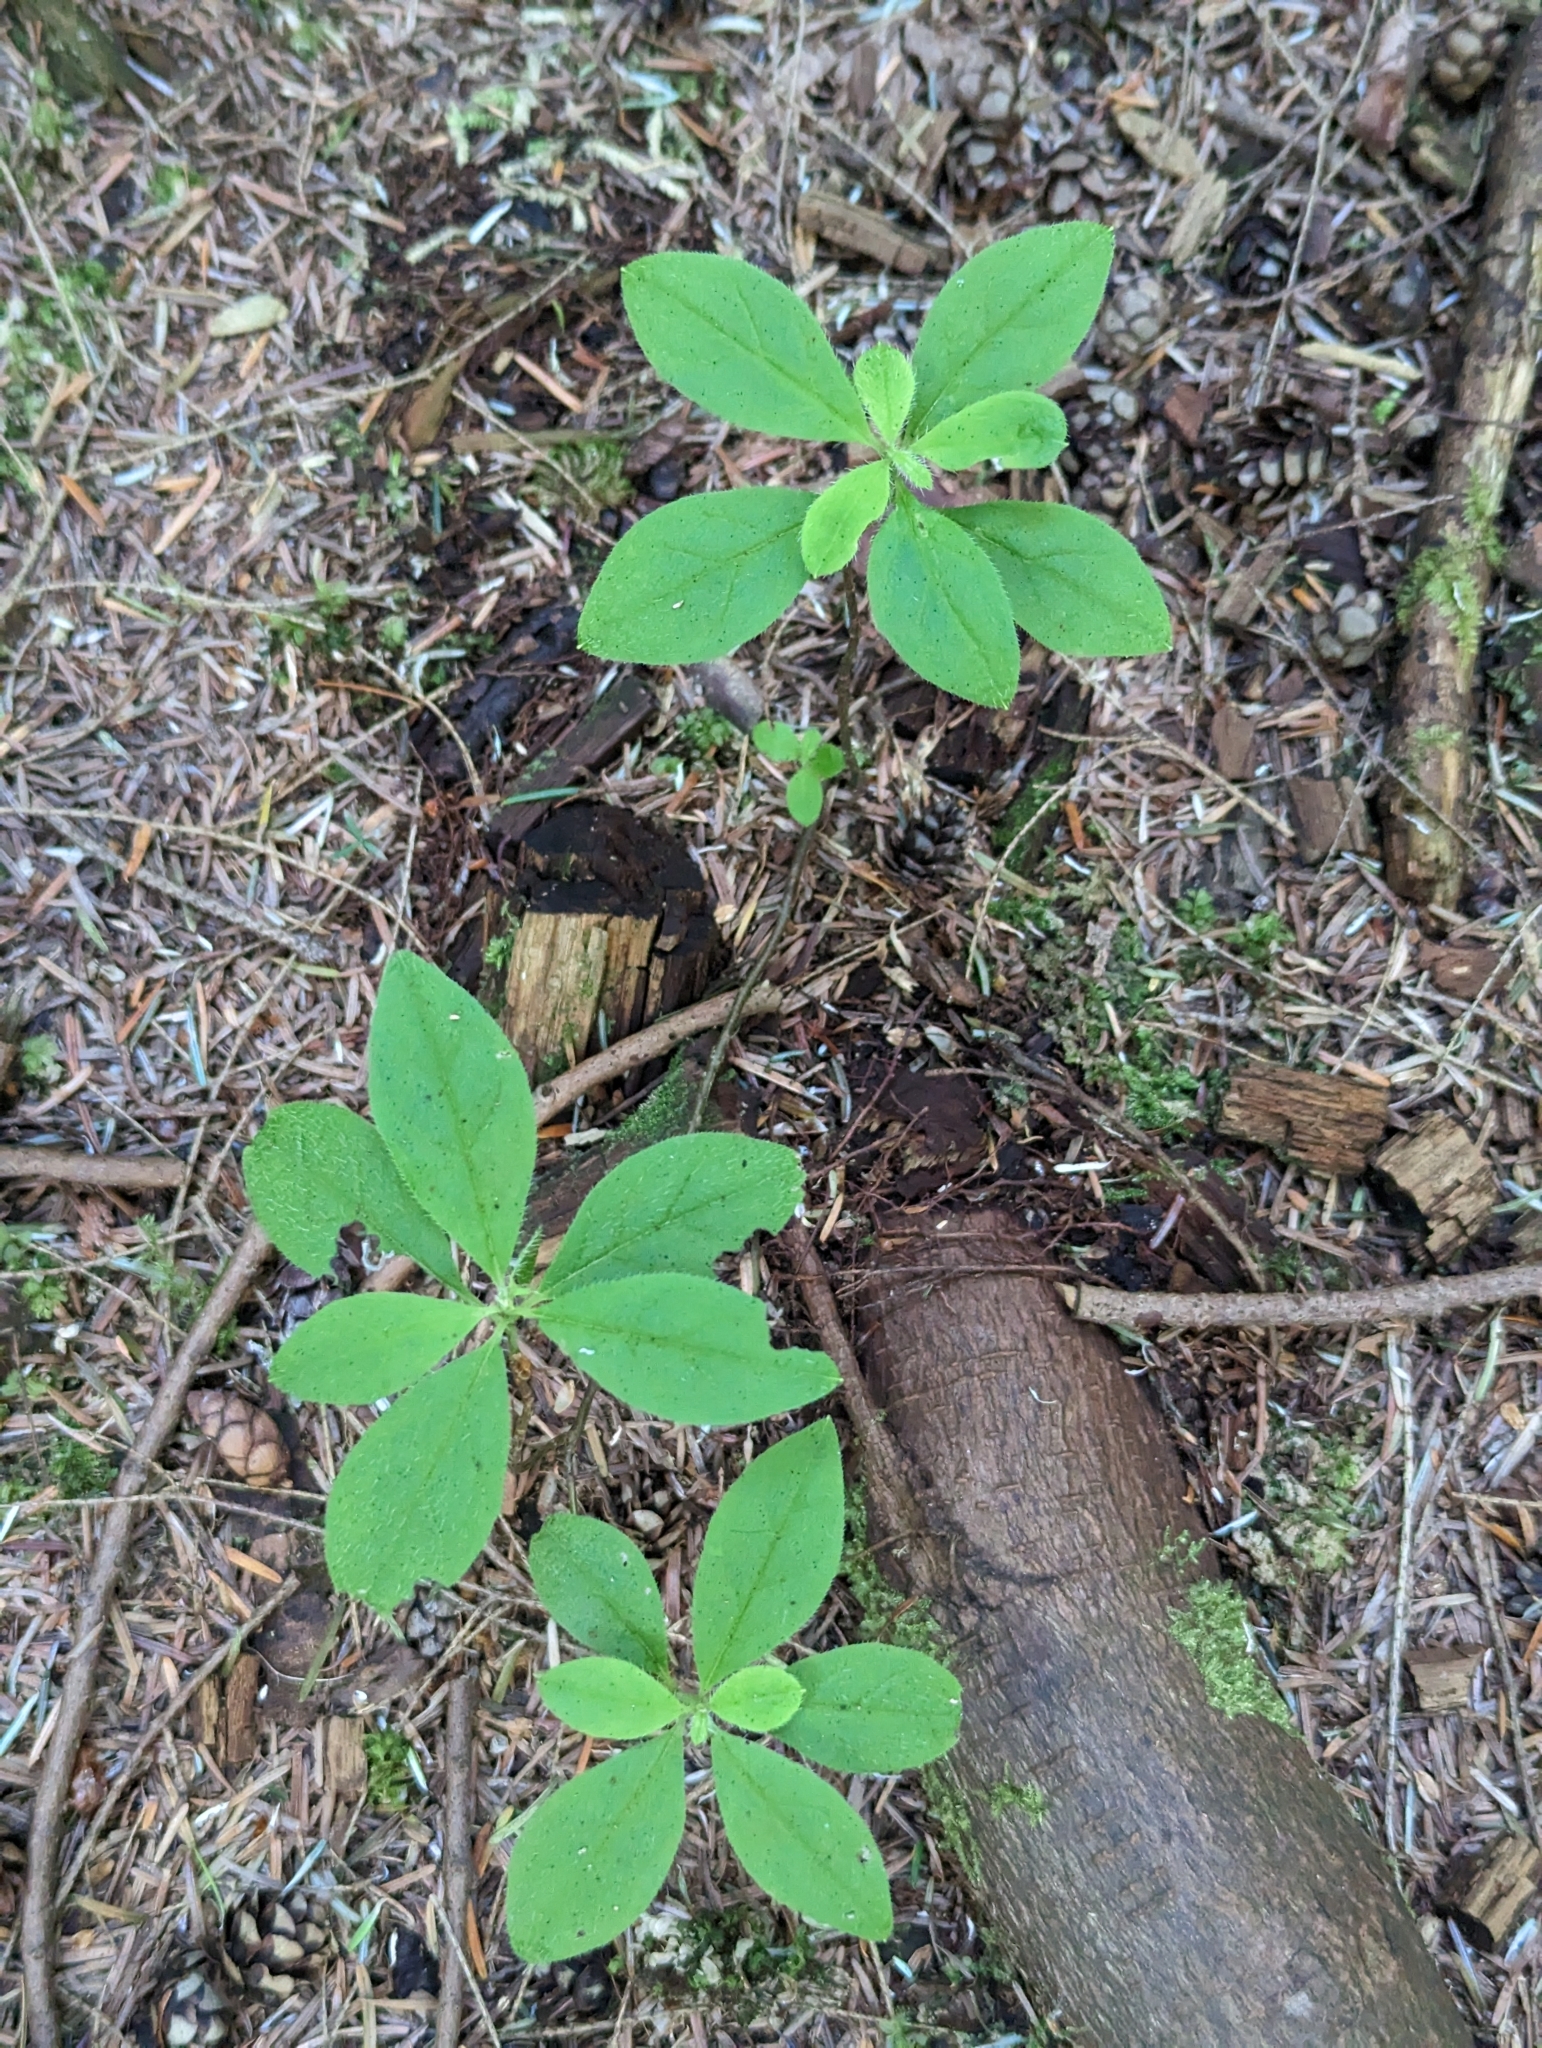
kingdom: Plantae
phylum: Tracheophyta
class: Magnoliopsida
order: Ericales
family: Ericaceae
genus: Rhododendron
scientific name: Rhododendron menziesii
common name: Pacific menziesia
